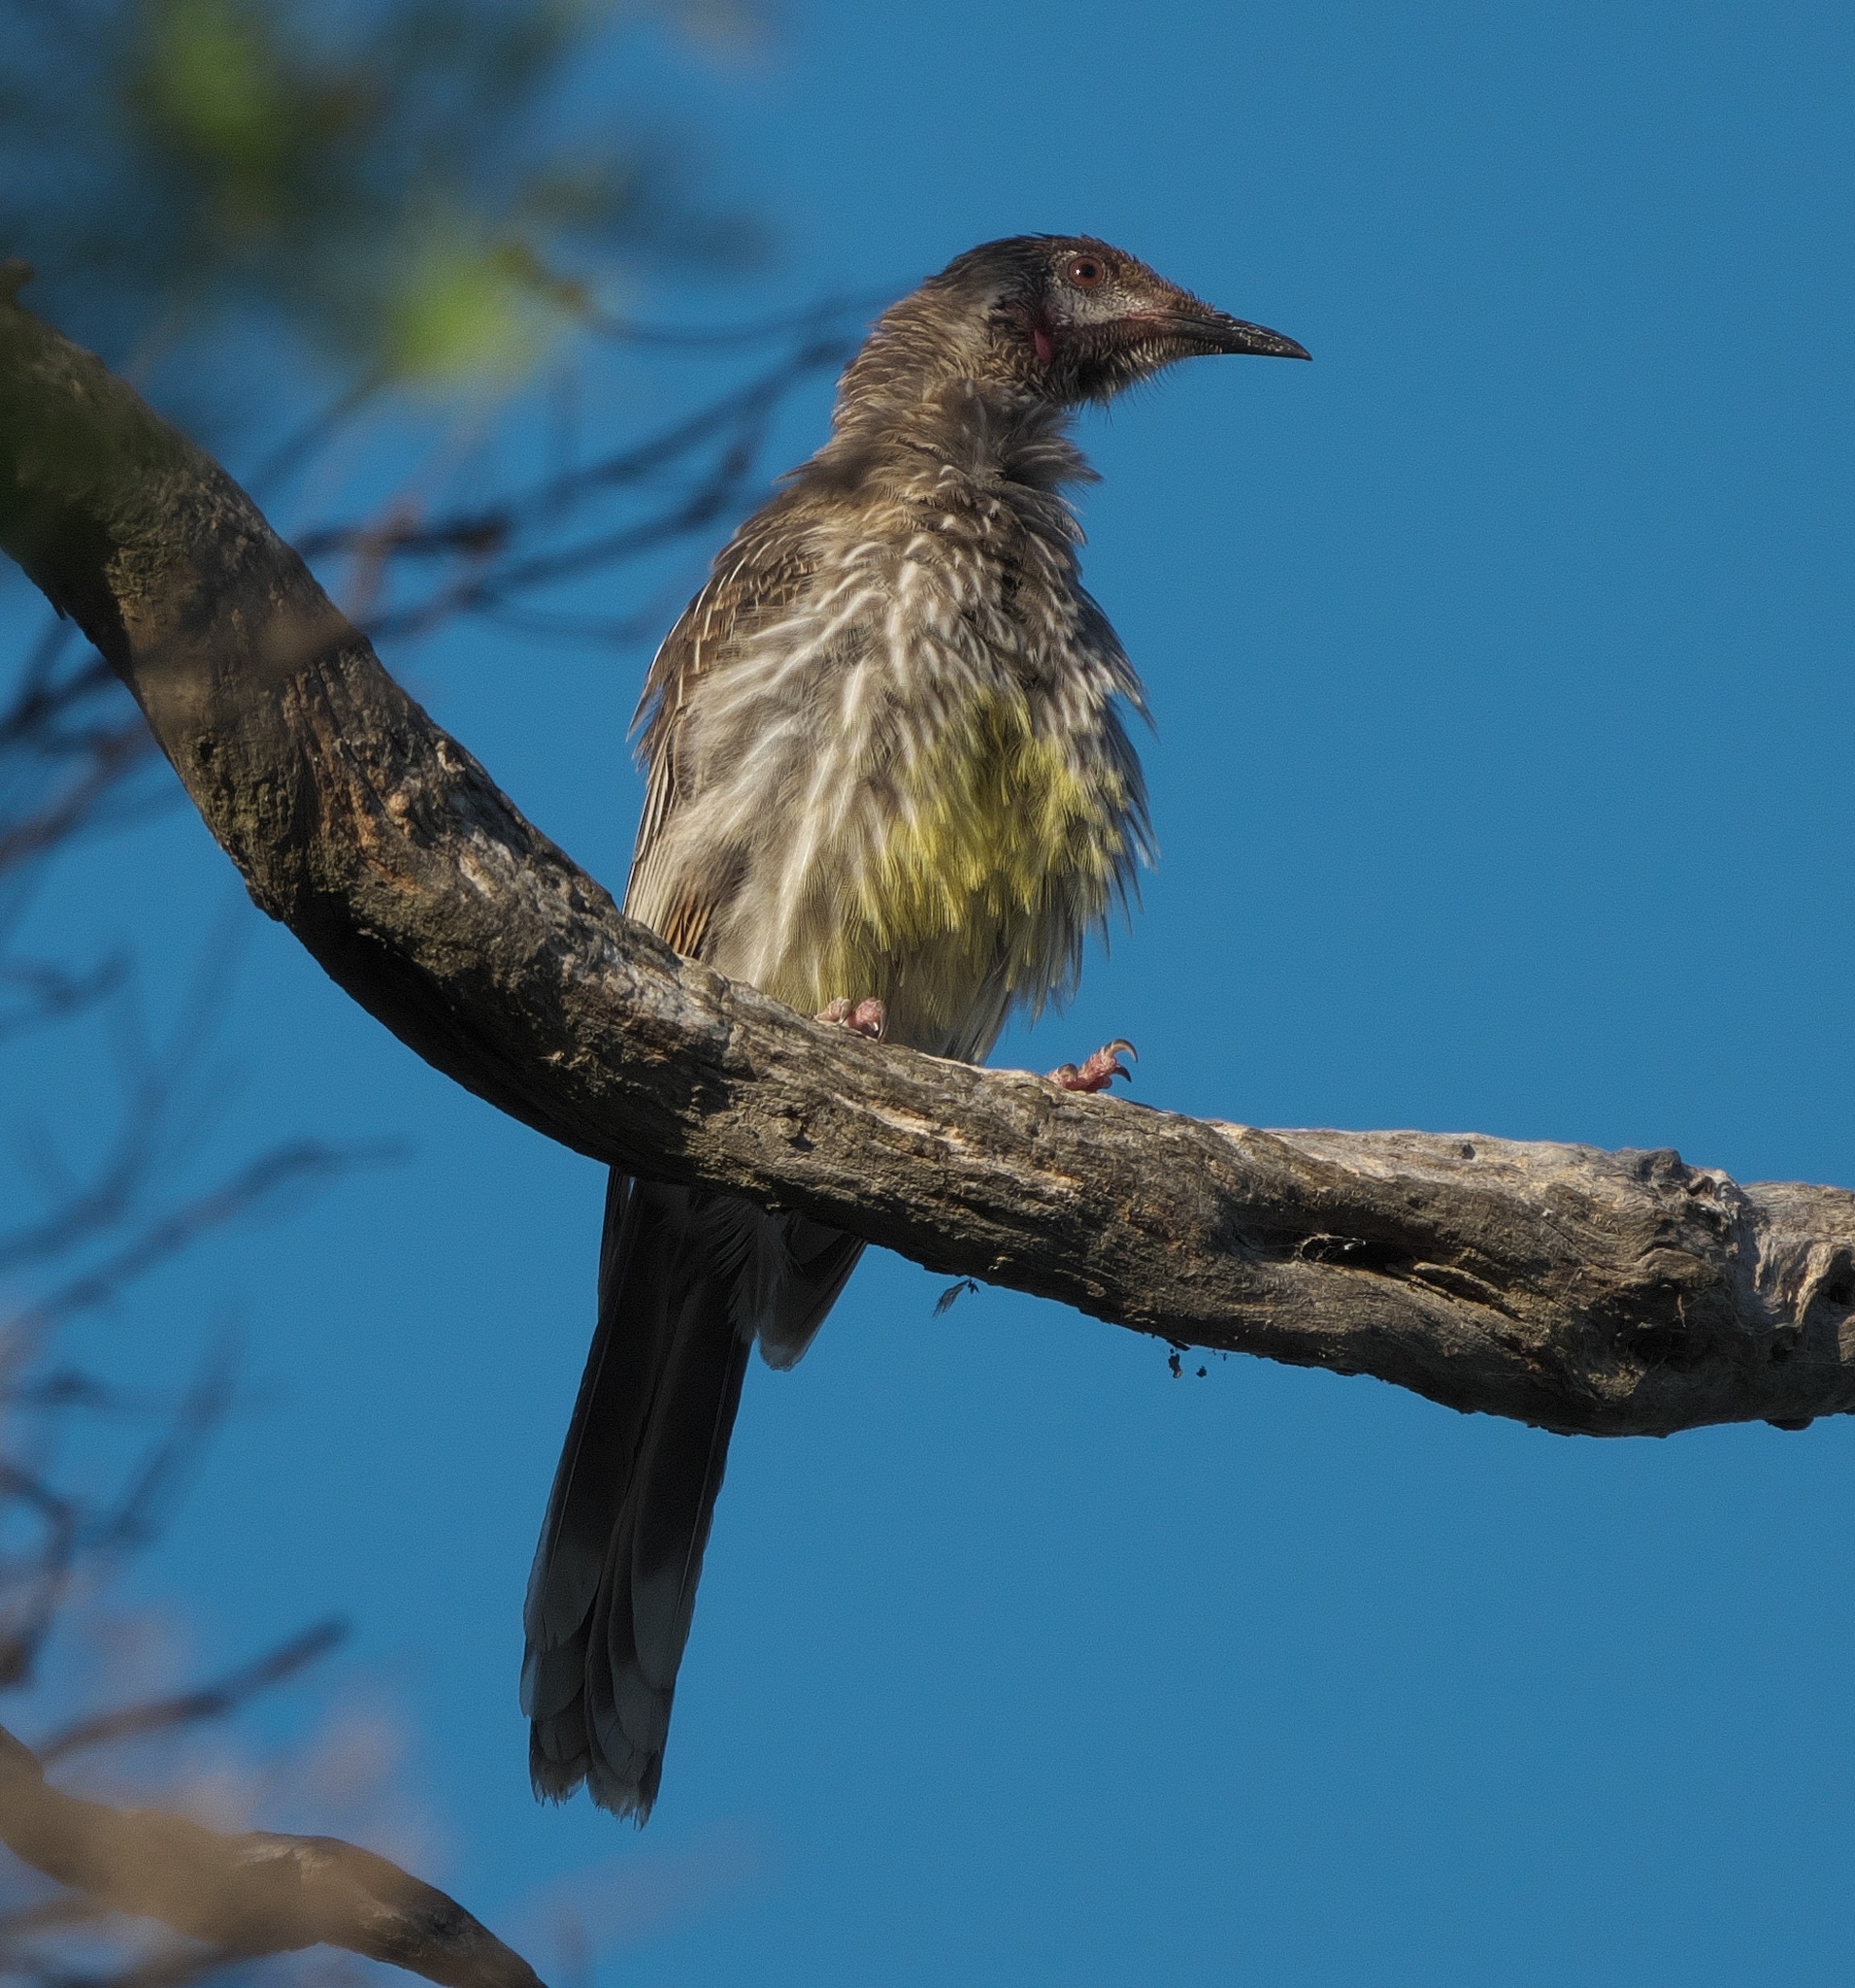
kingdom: Animalia
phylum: Chordata
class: Aves
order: Passeriformes
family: Meliphagidae
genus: Anthochaera
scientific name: Anthochaera carunculata
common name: Red wattlebird
